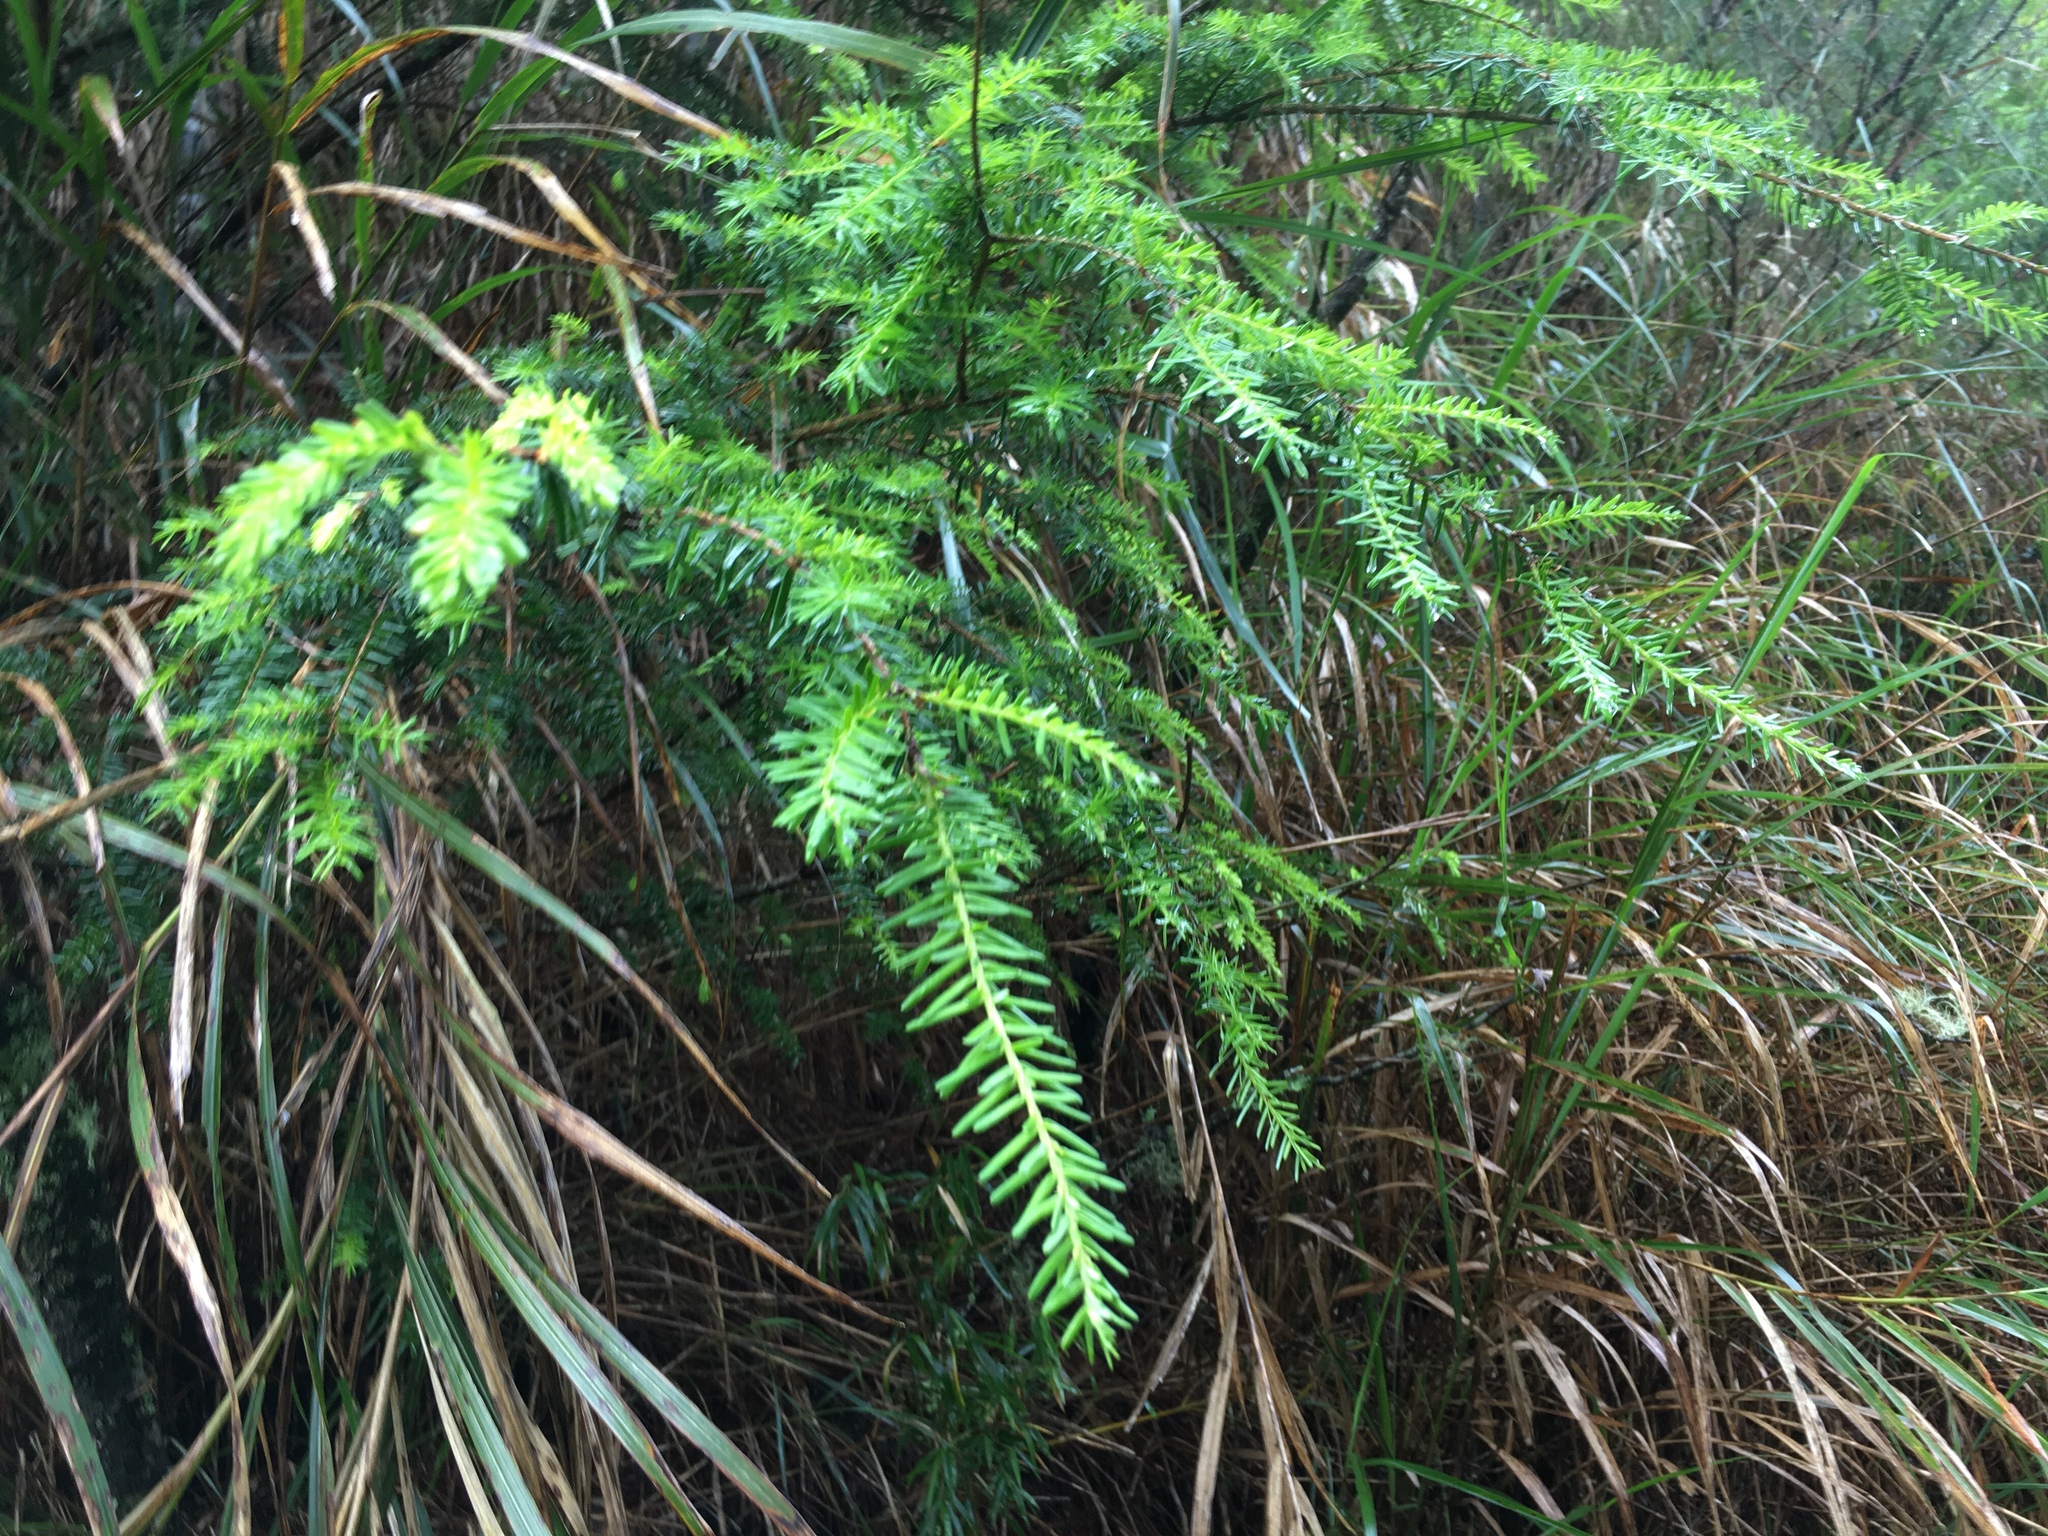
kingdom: Plantae
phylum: Tracheophyta
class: Pinopsida
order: Pinales
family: Pinaceae
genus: Tsuga
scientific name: Tsuga chinensis
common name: Chinese hemlock
